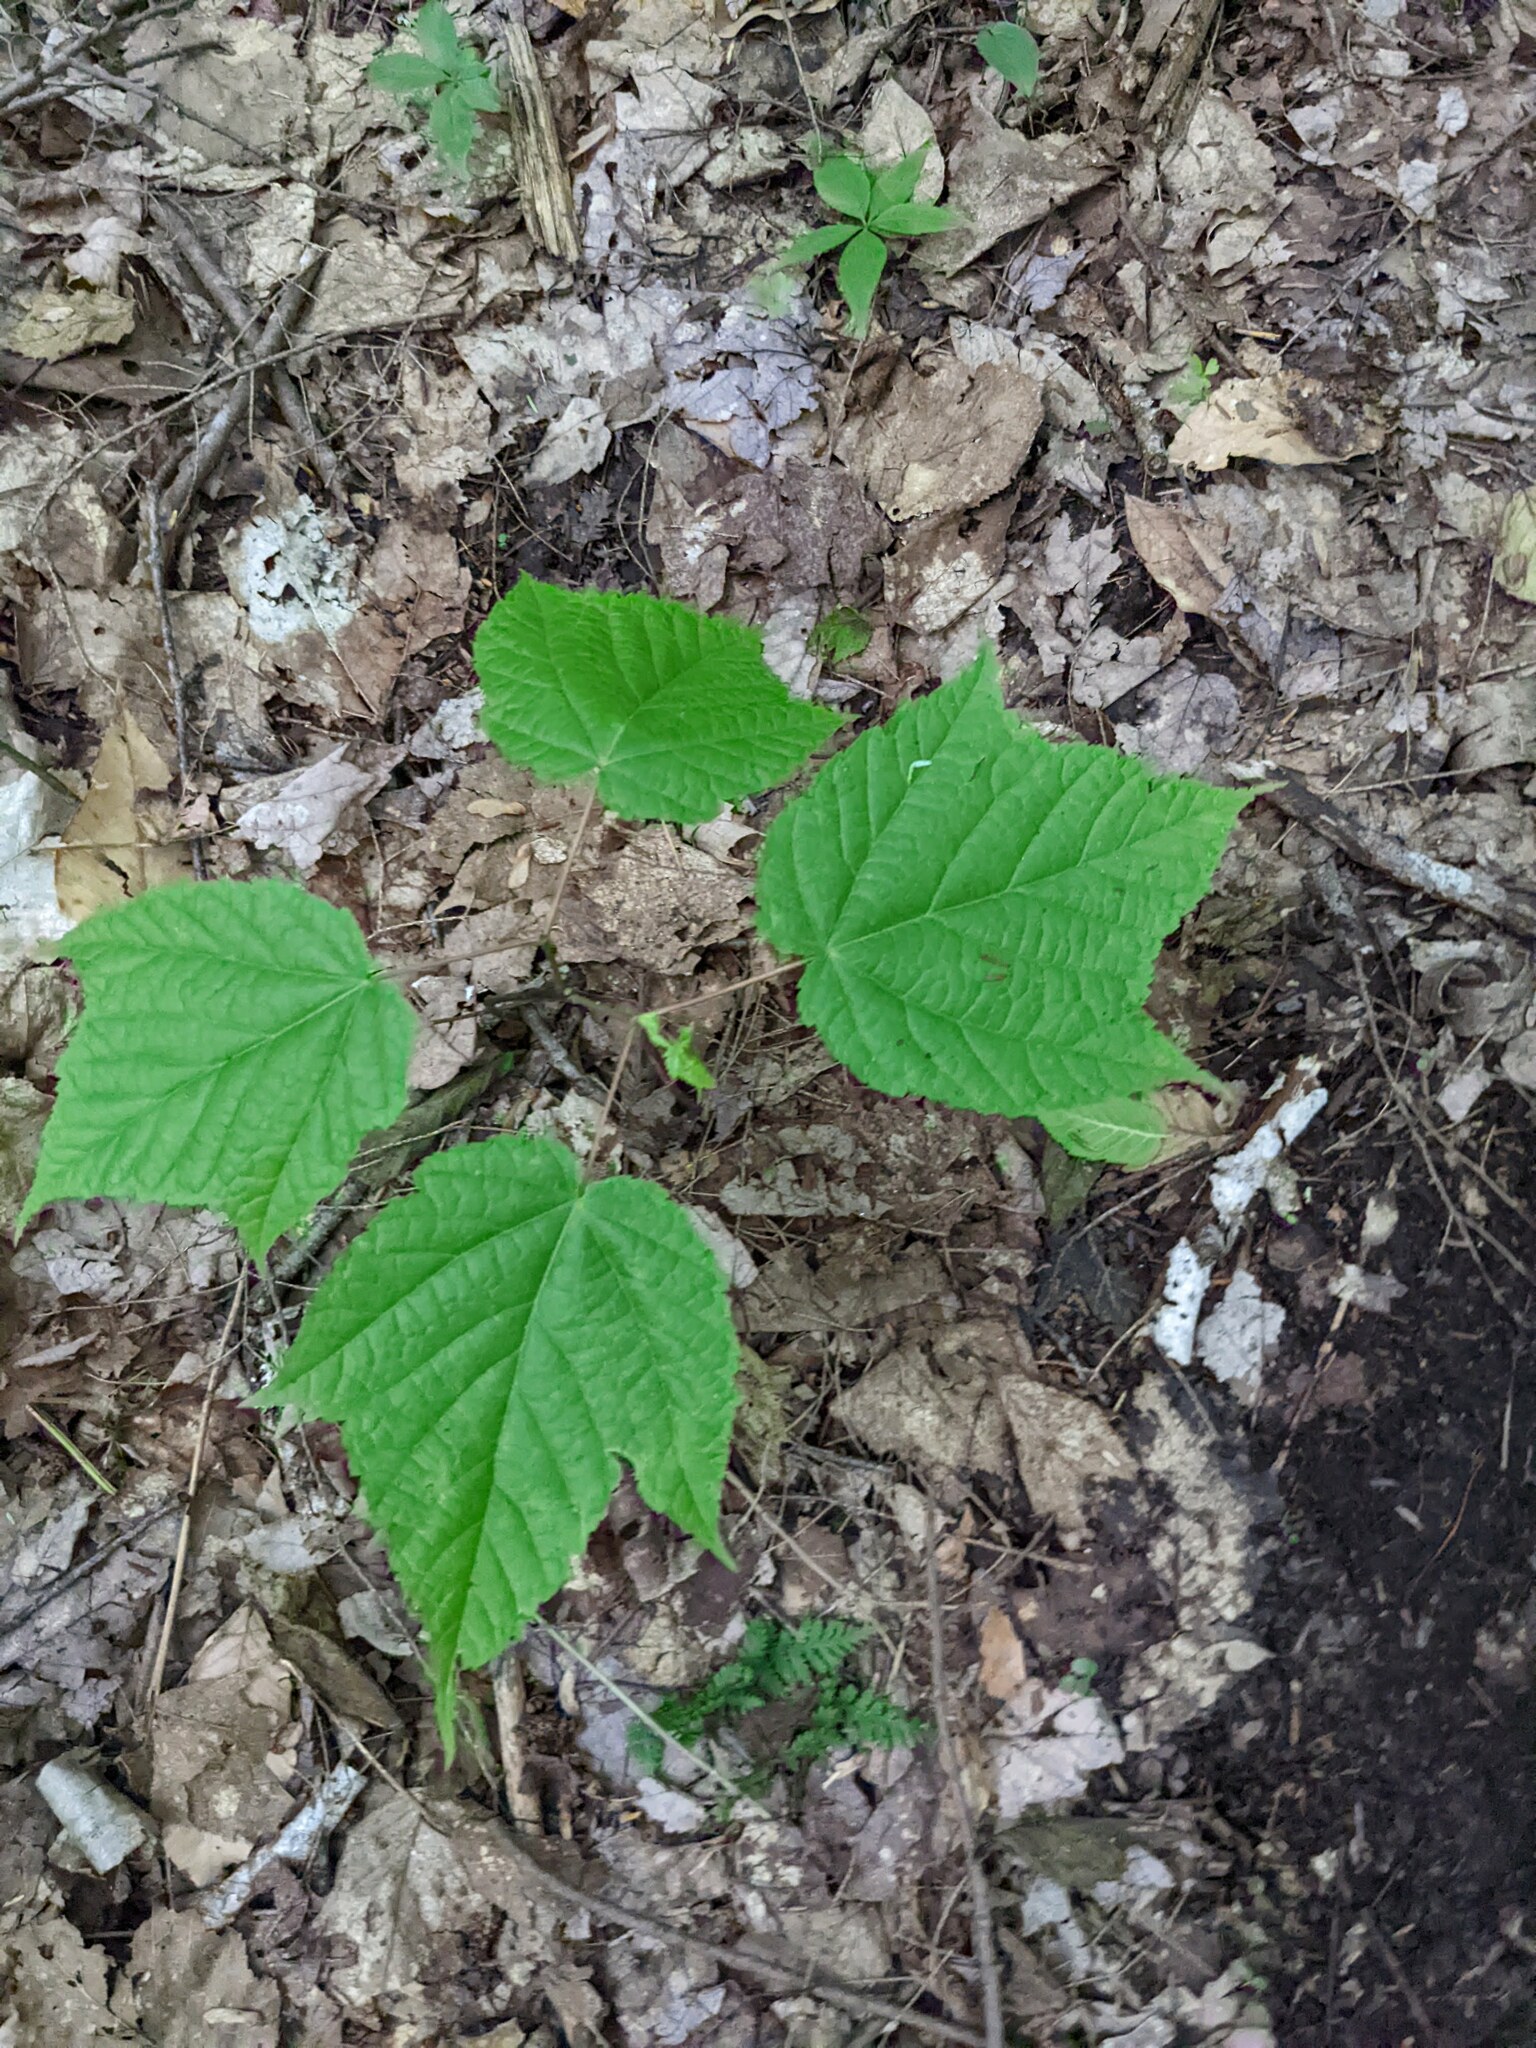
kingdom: Plantae
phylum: Tracheophyta
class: Magnoliopsida
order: Sapindales
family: Sapindaceae
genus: Acer
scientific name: Acer pensylvanicum
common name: Moosewood
